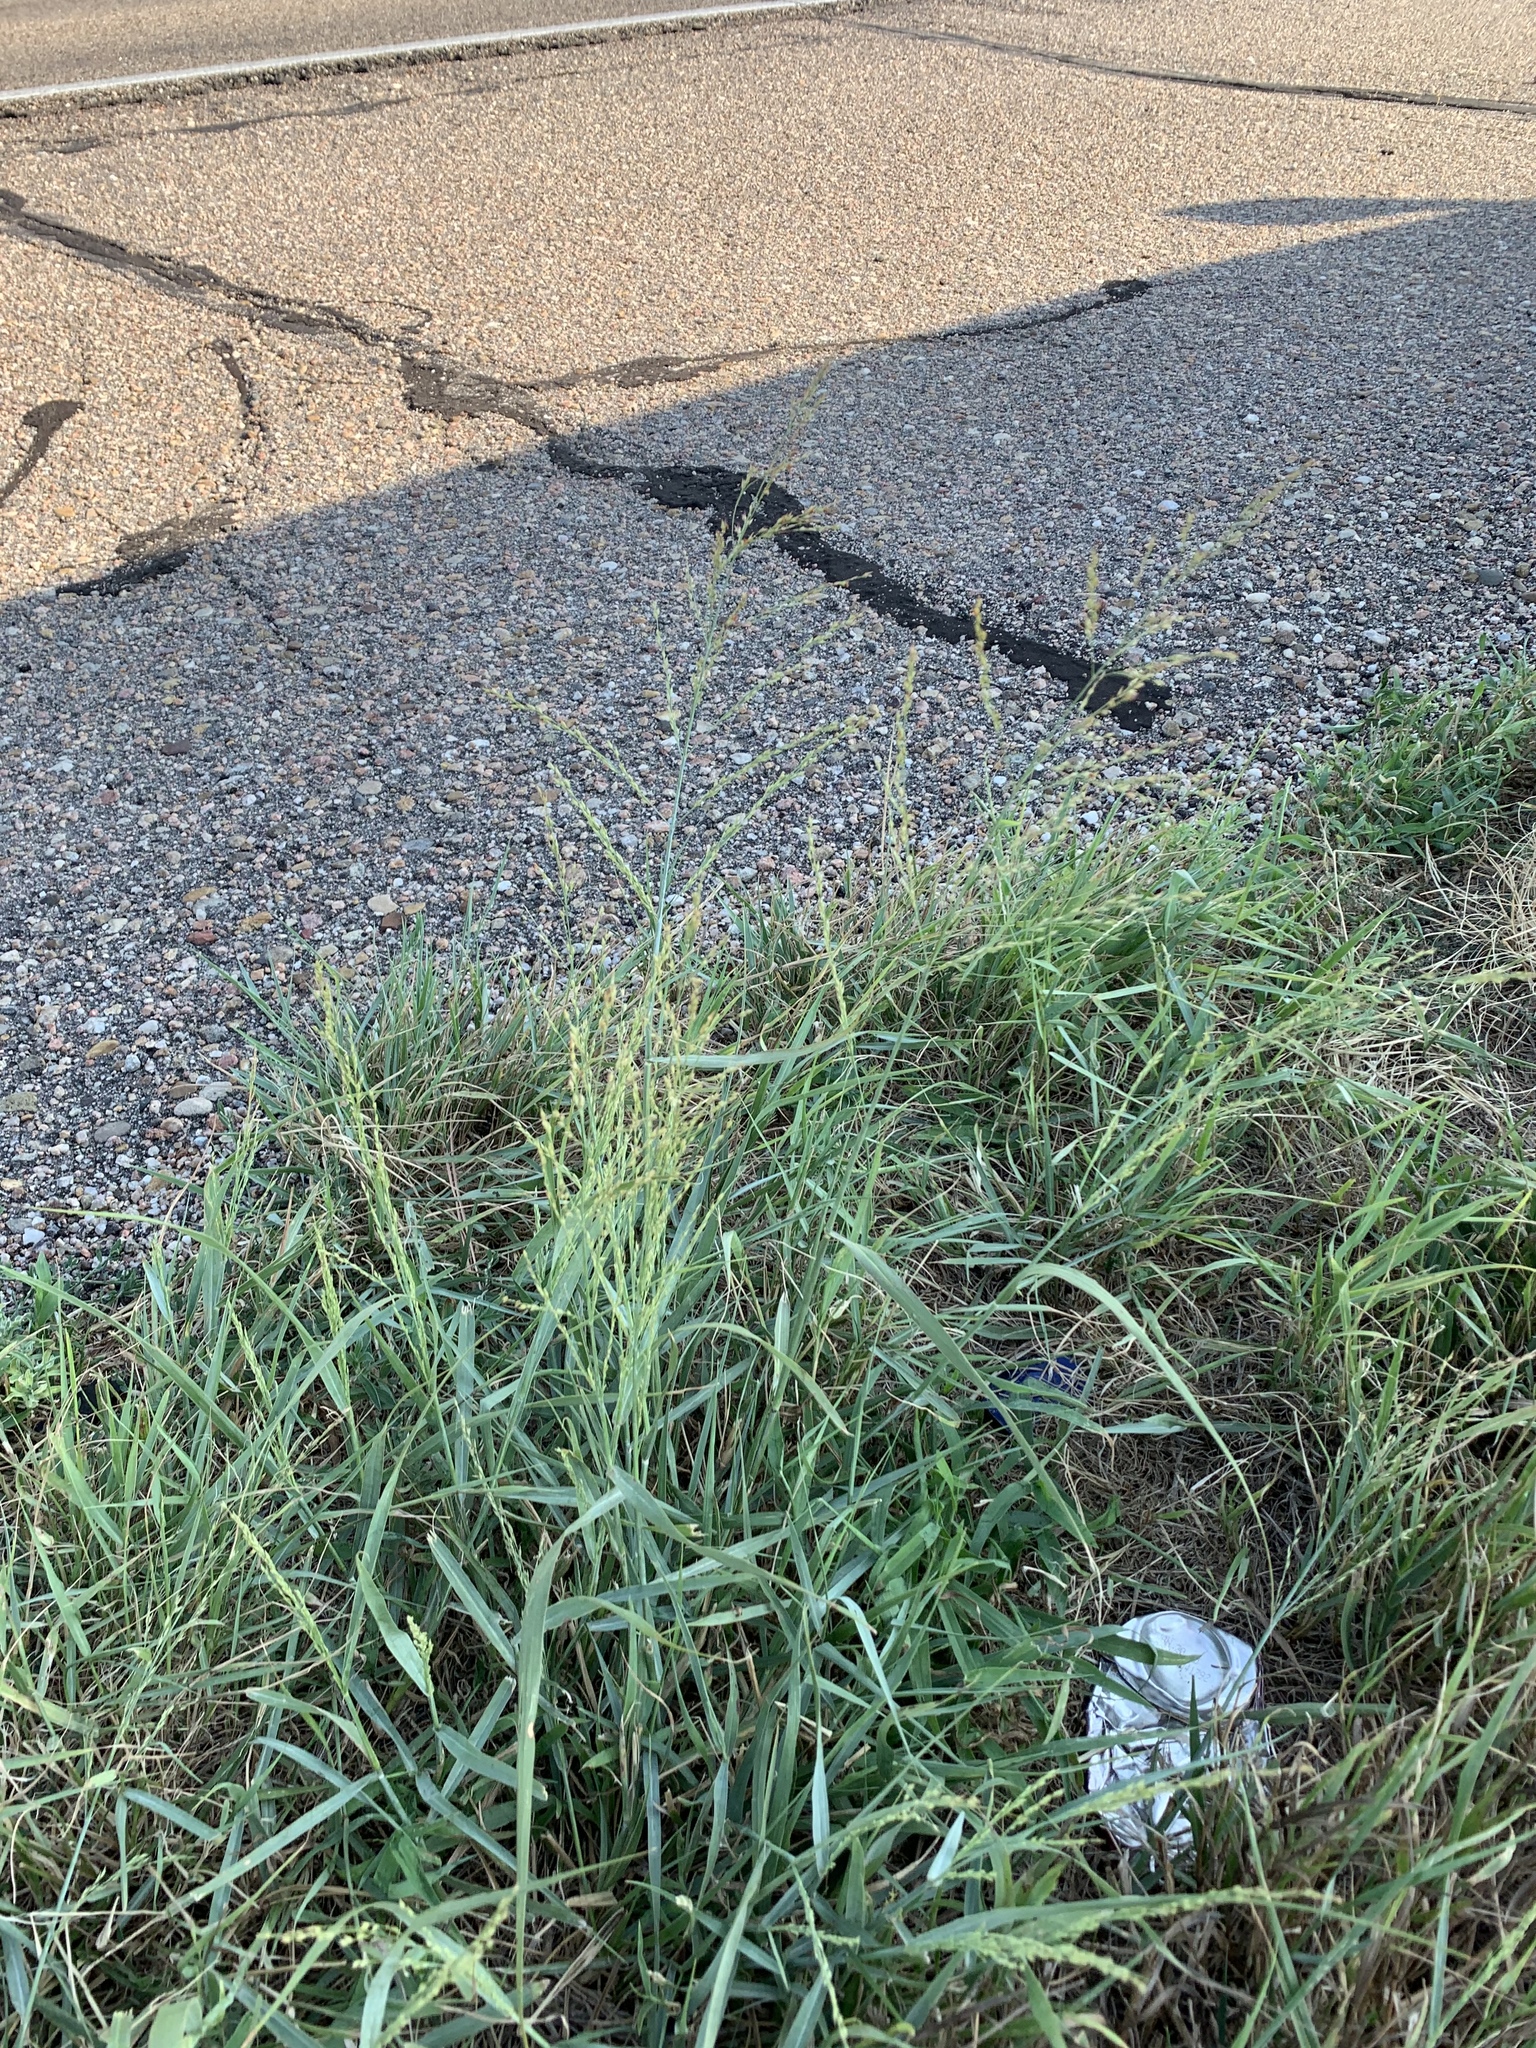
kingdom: Plantae
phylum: Tracheophyta
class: Liliopsida
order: Poales
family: Poaceae
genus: Panicum
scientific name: Panicum virgatum
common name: Switchgrass
